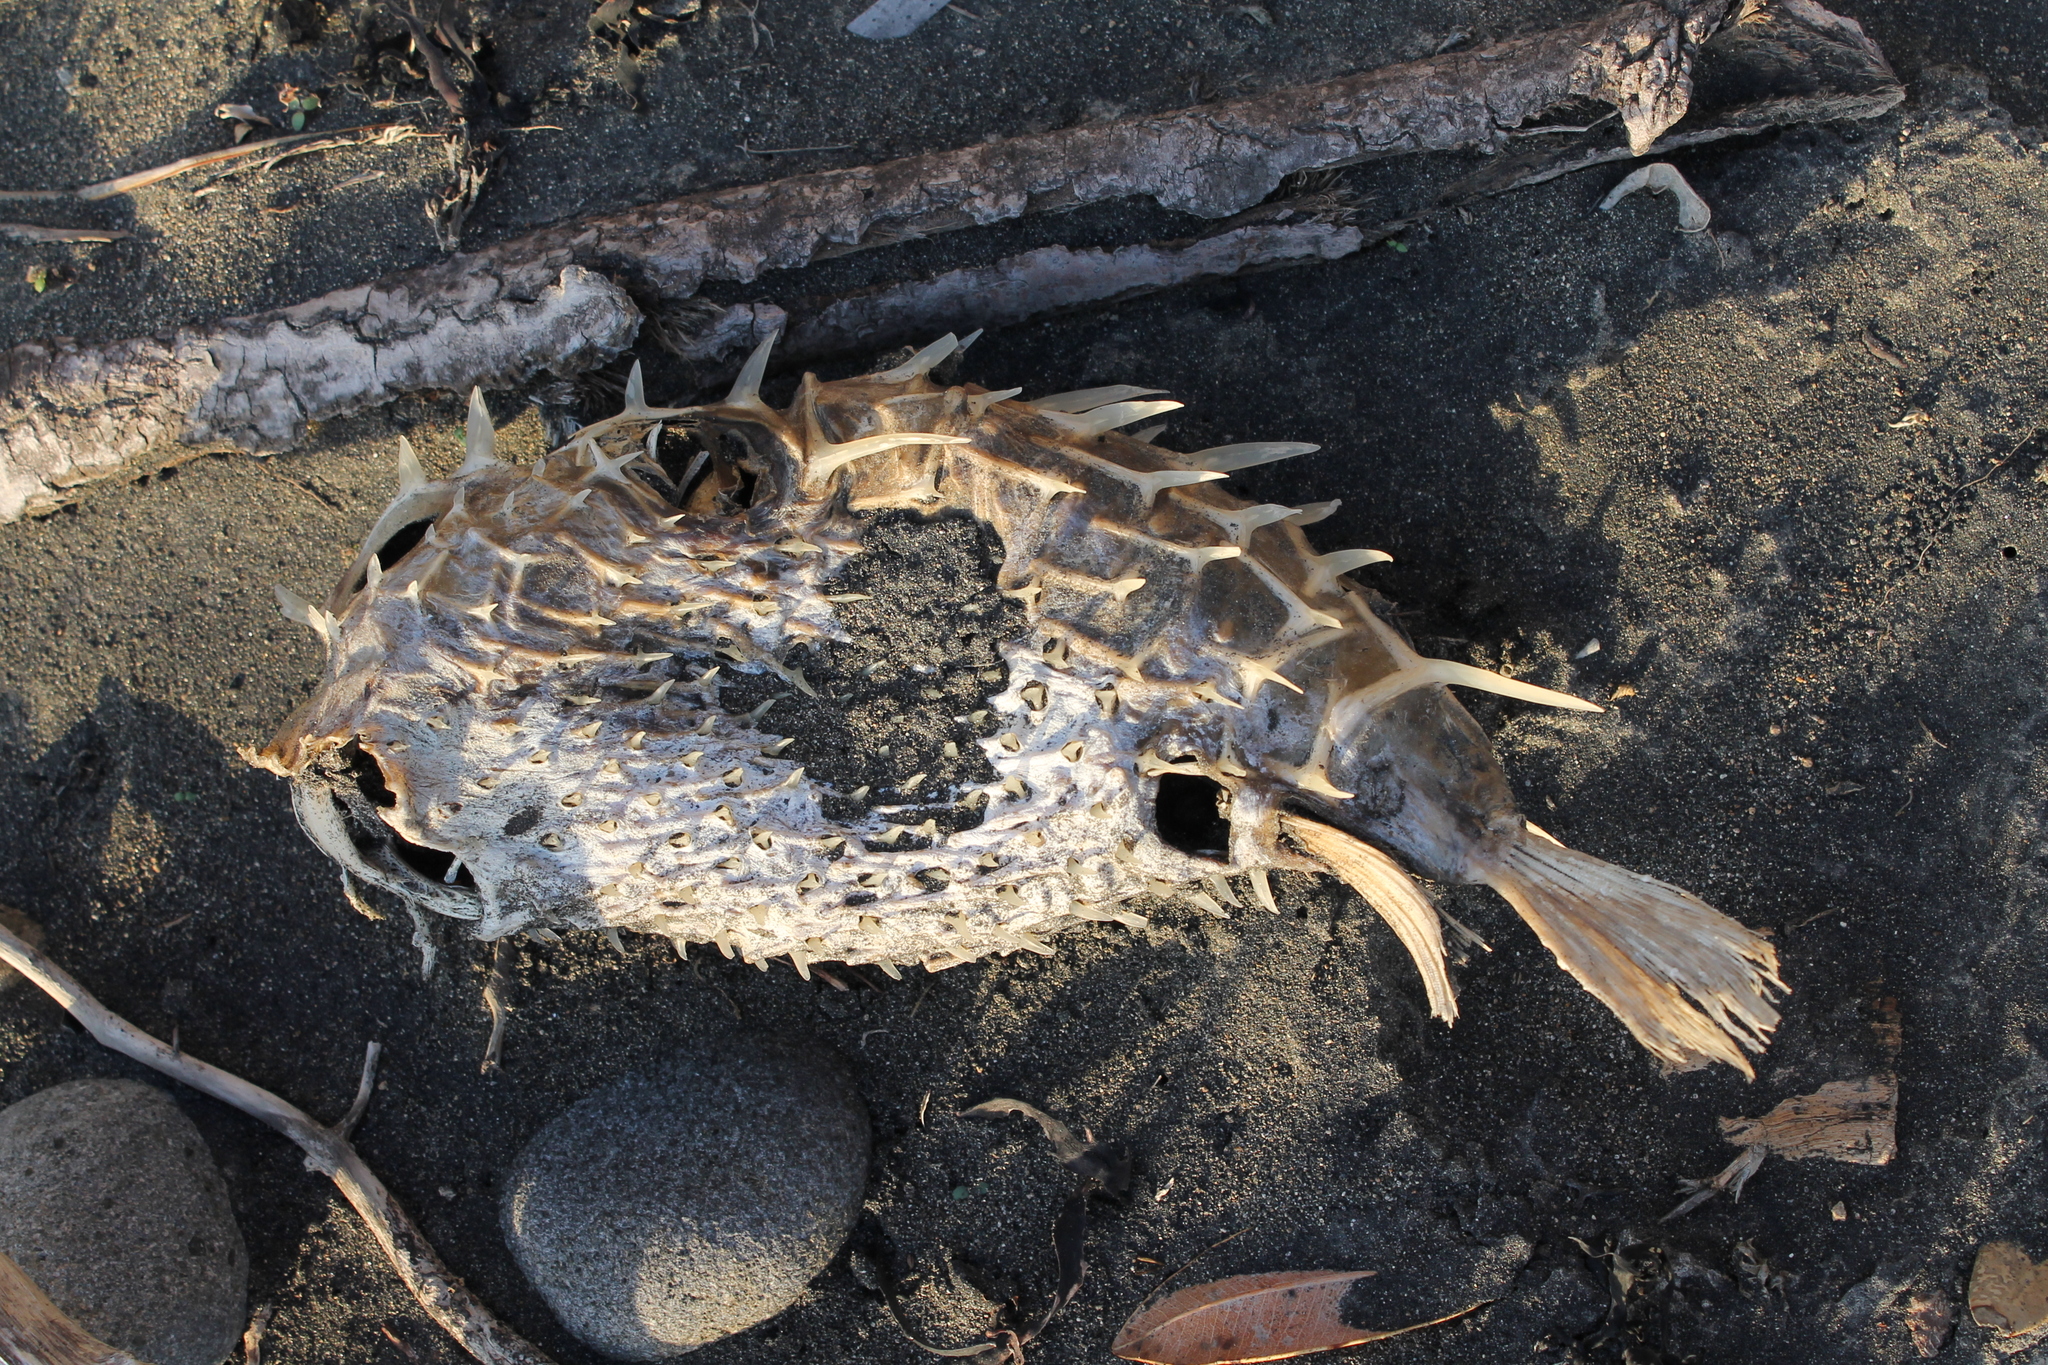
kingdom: Animalia
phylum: Chordata
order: Tetraodontiformes
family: Diodontidae
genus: Allomycterus
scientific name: Allomycterus pilatus
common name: No common name
